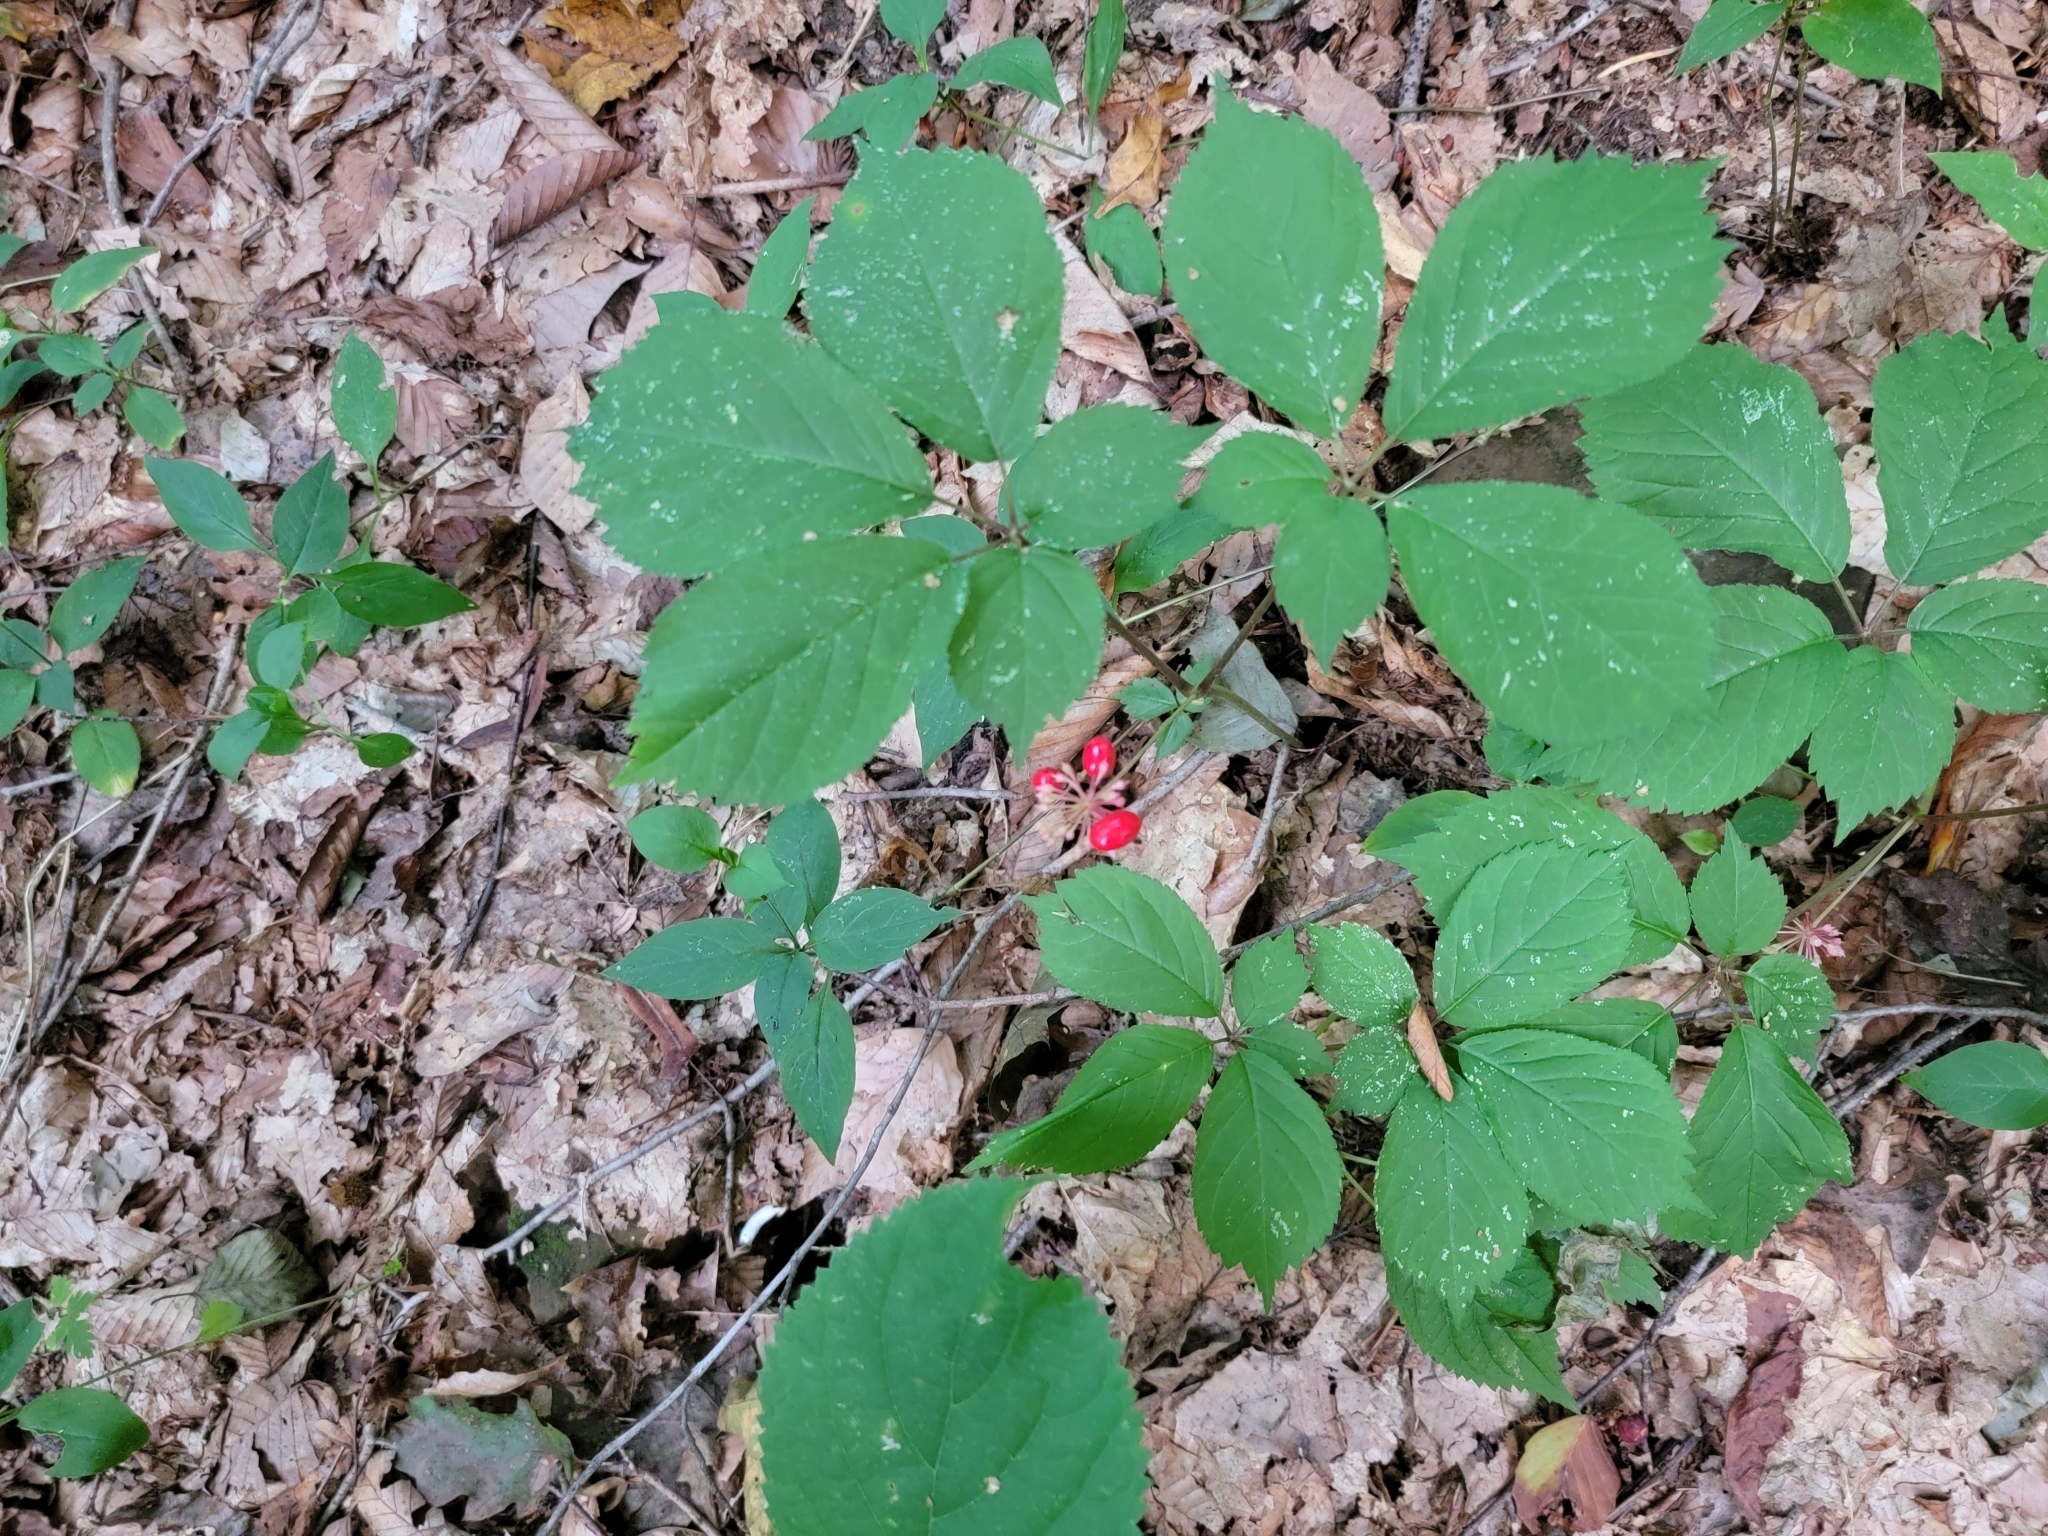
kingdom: Plantae
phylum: Tracheophyta
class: Magnoliopsida
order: Apiales
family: Araliaceae
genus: Panax
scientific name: Panax quinquefolius
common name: American ginseng
